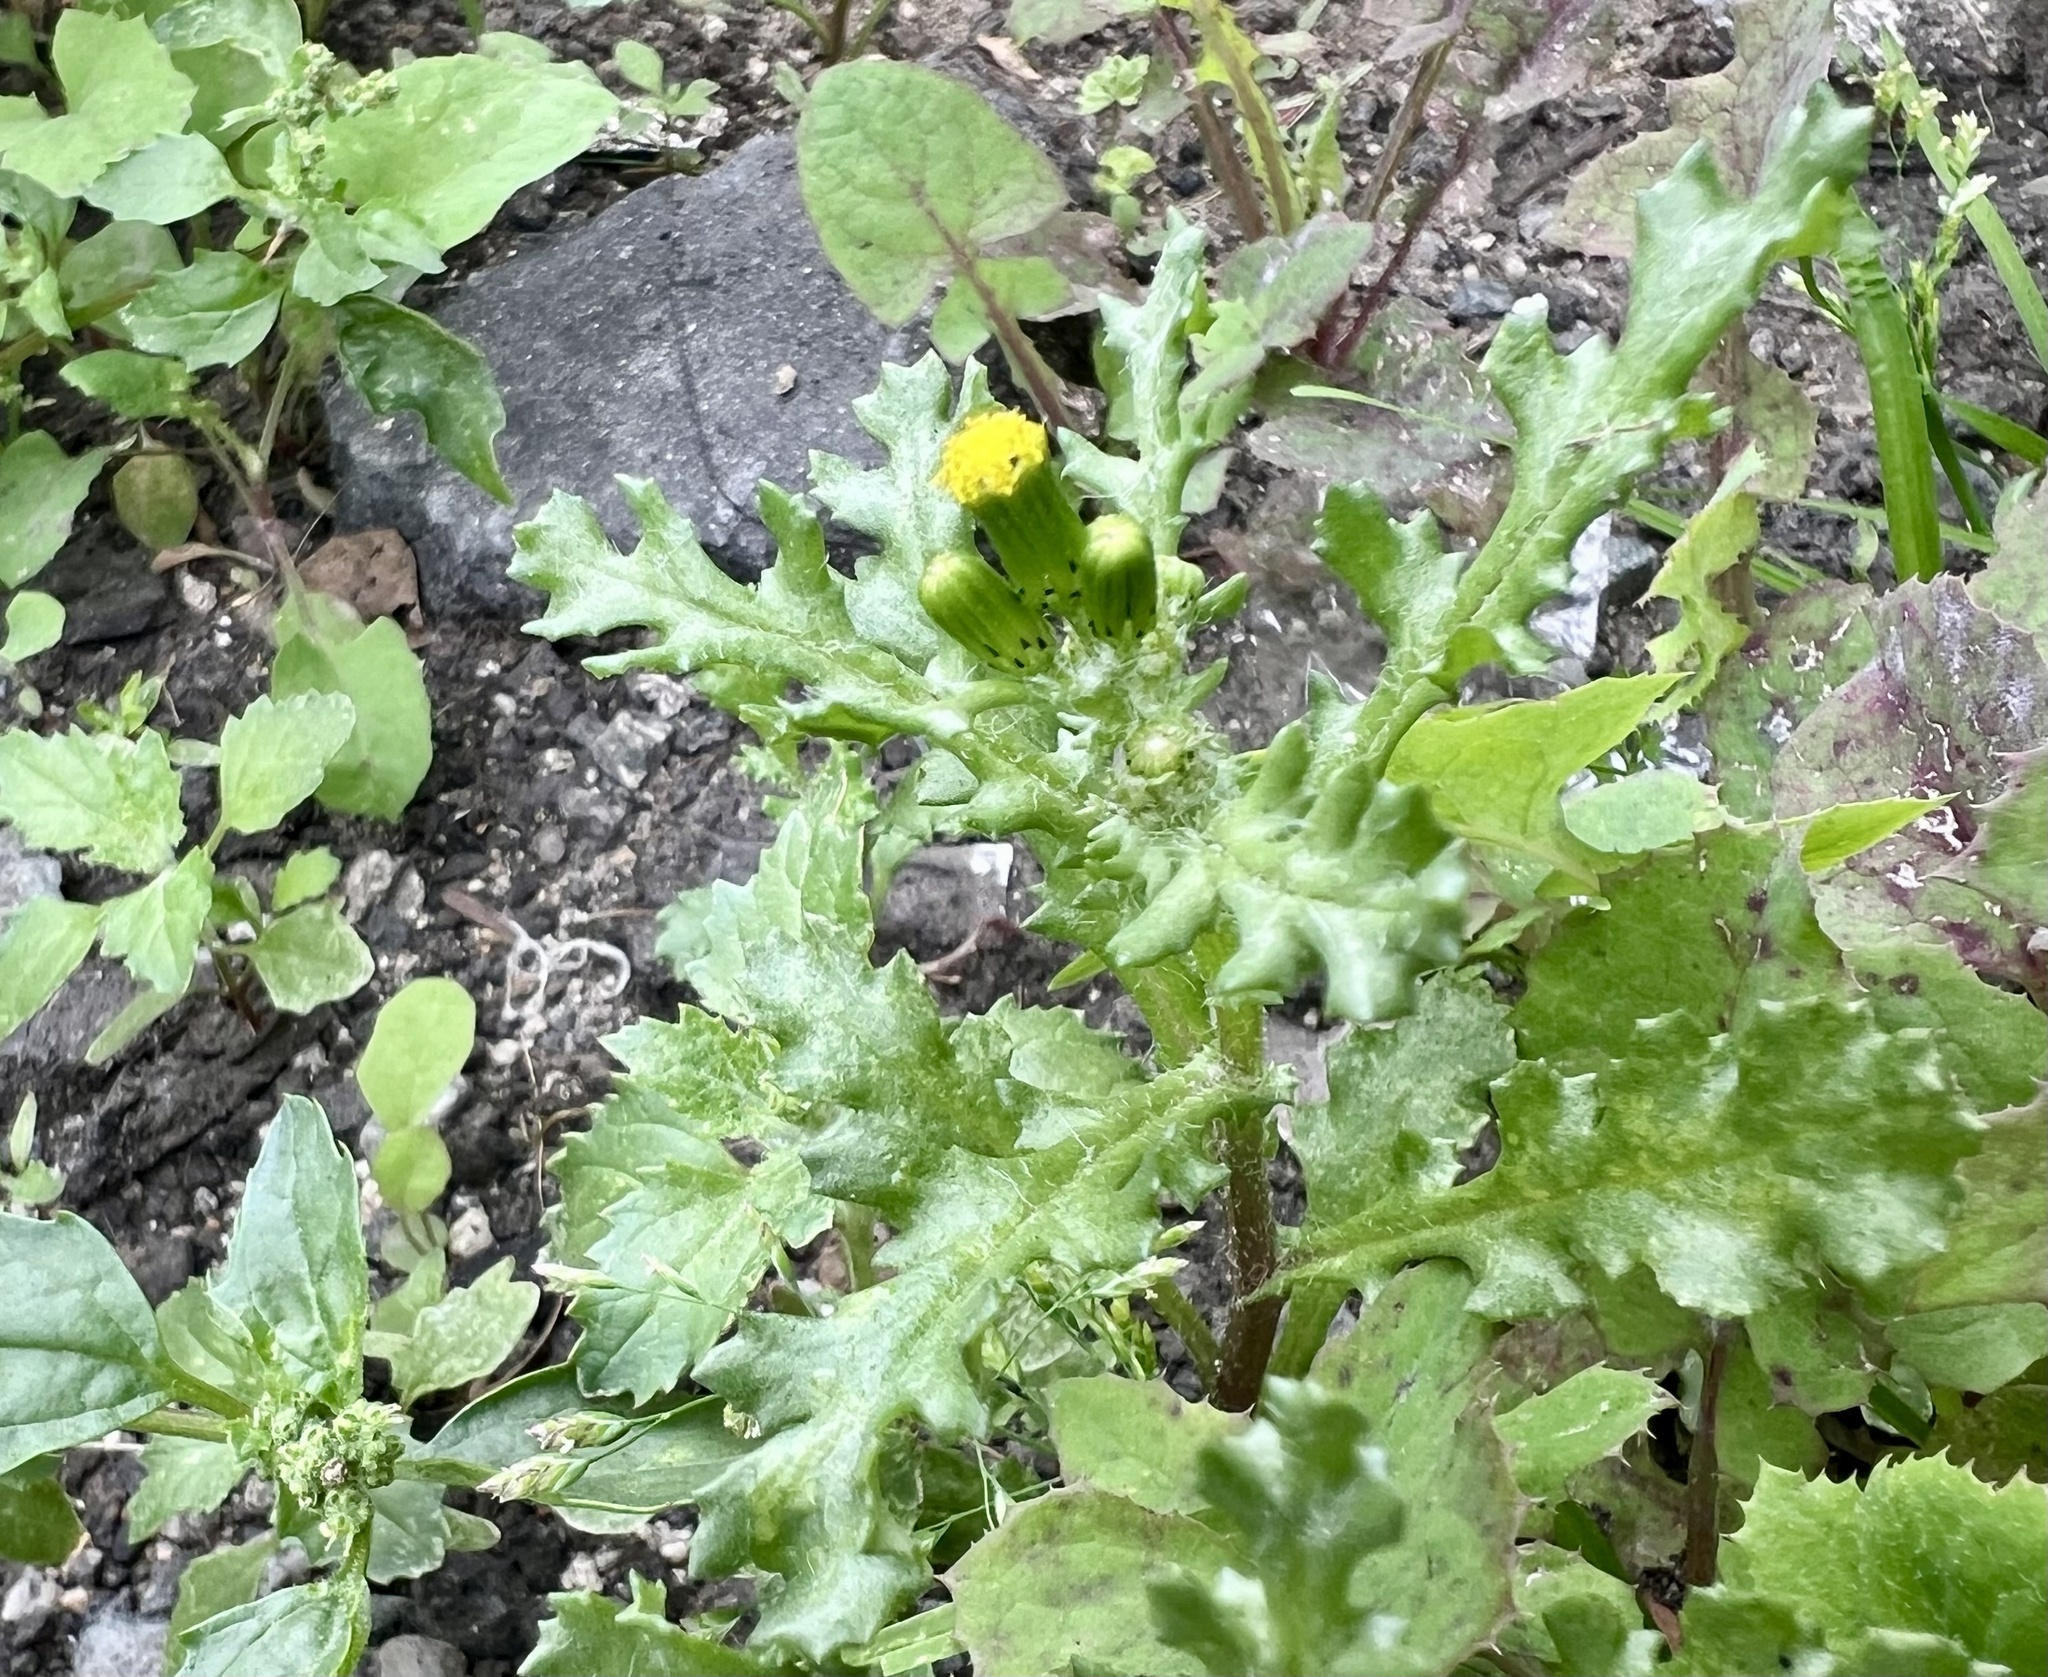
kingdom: Plantae
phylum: Tracheophyta
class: Magnoliopsida
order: Asterales
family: Asteraceae
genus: Senecio
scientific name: Senecio vulgaris
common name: Old-man-in-the-spring
